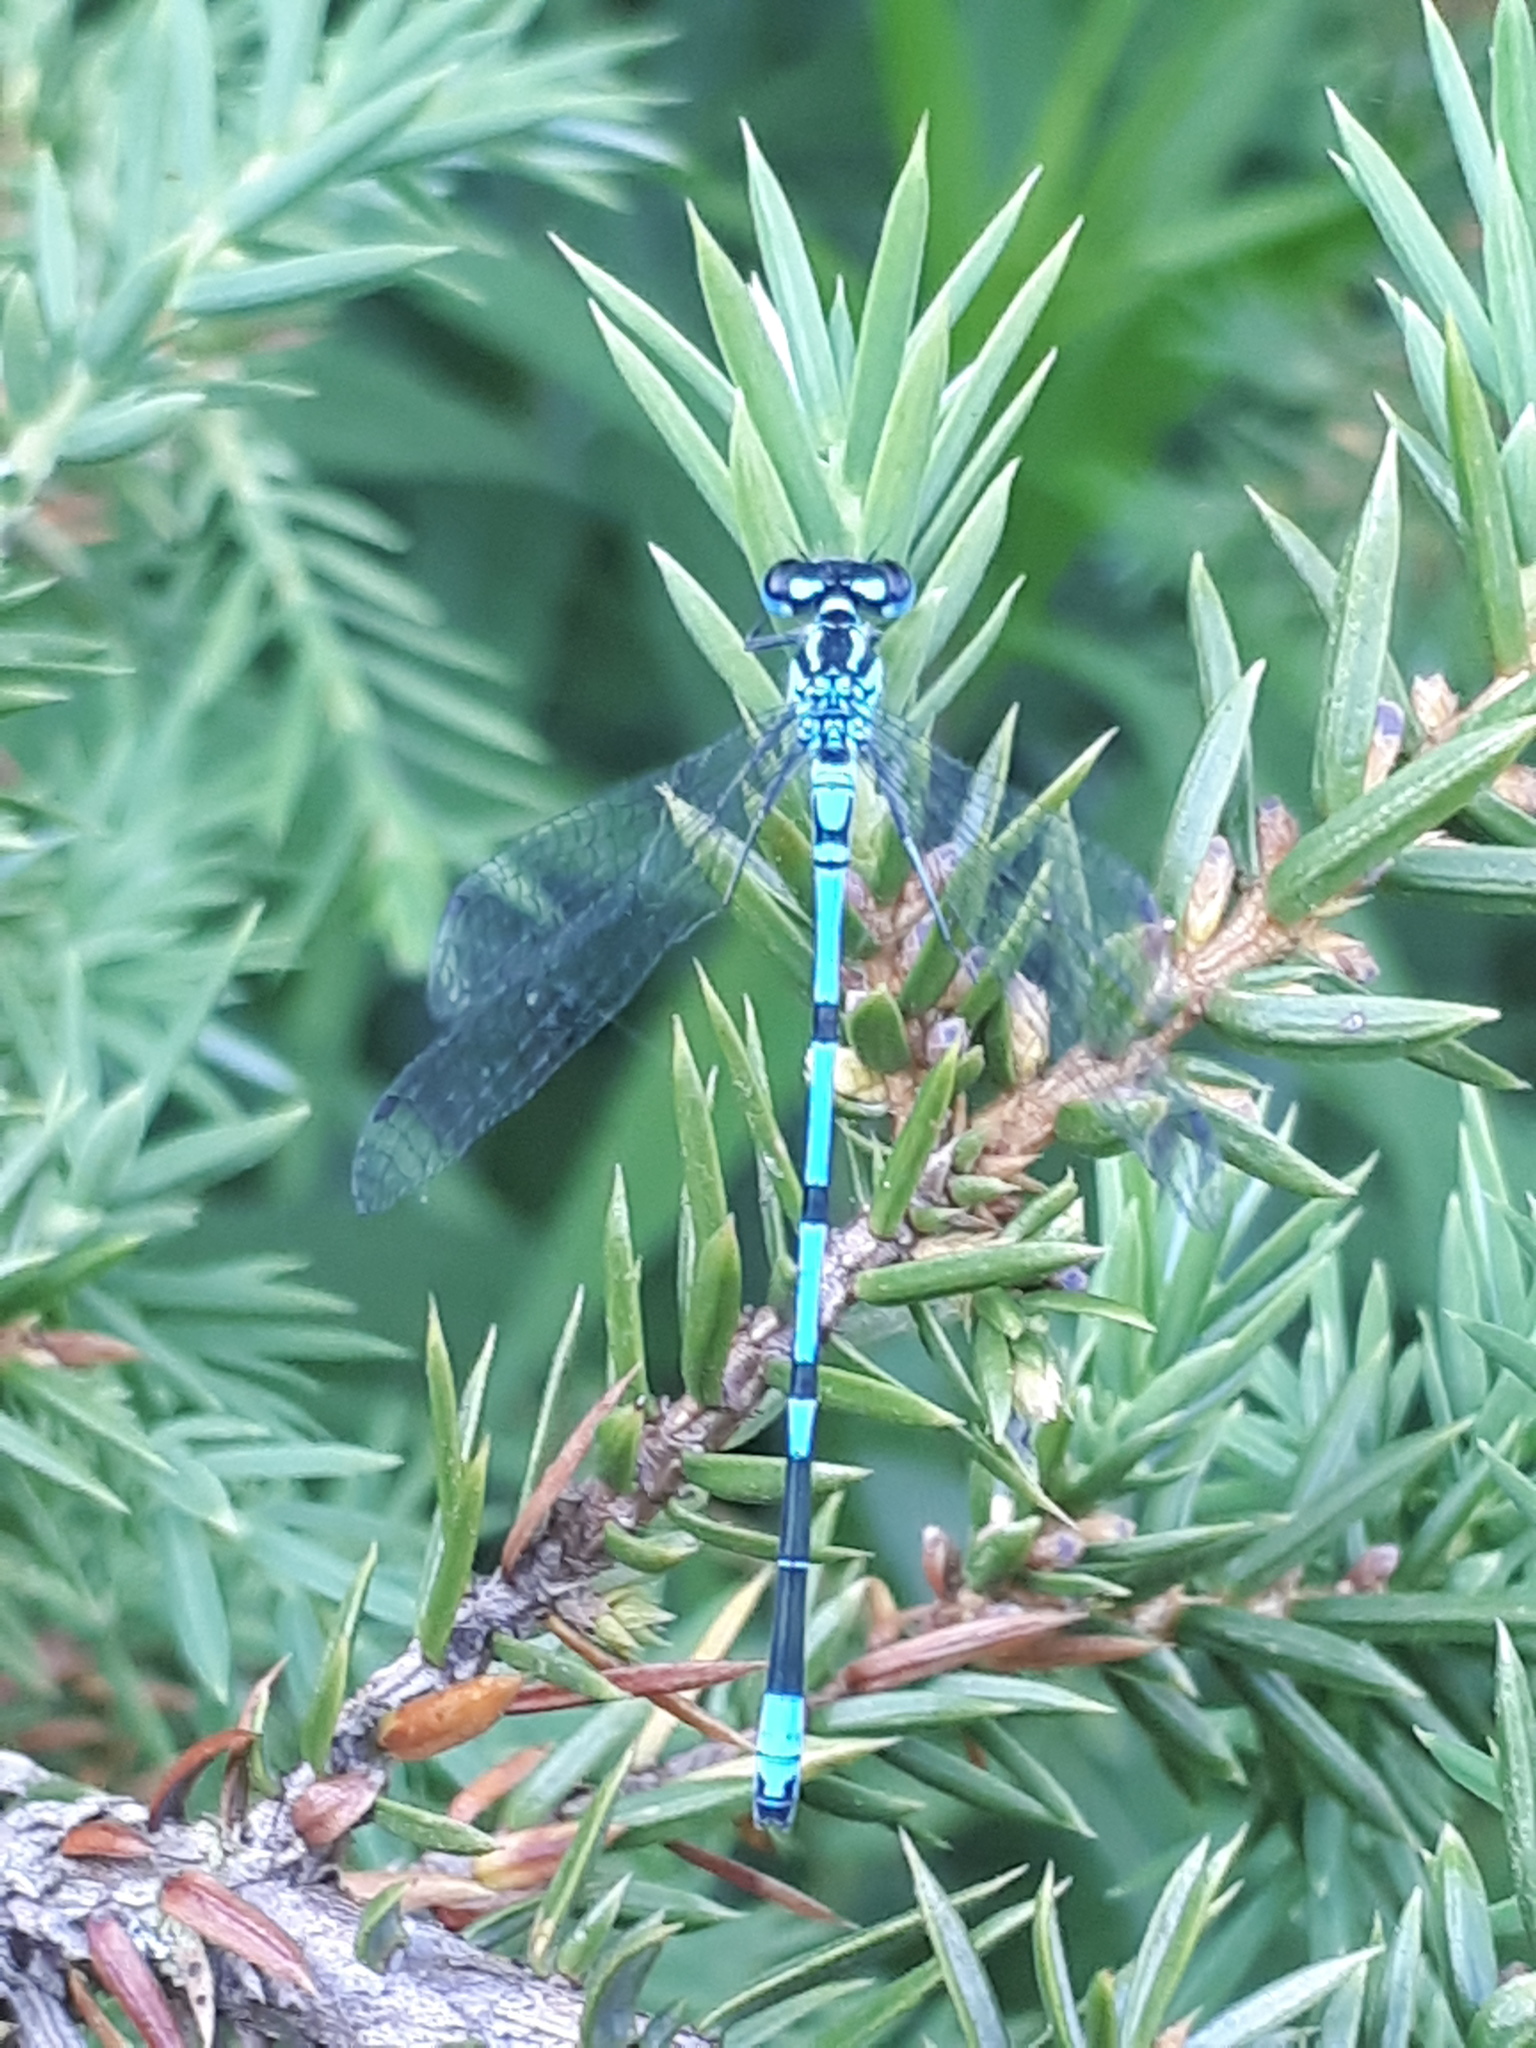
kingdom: Animalia
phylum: Arthropoda
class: Insecta
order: Odonata
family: Coenagrionidae
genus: Coenagrion
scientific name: Coenagrion puella
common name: Azure damselfly
